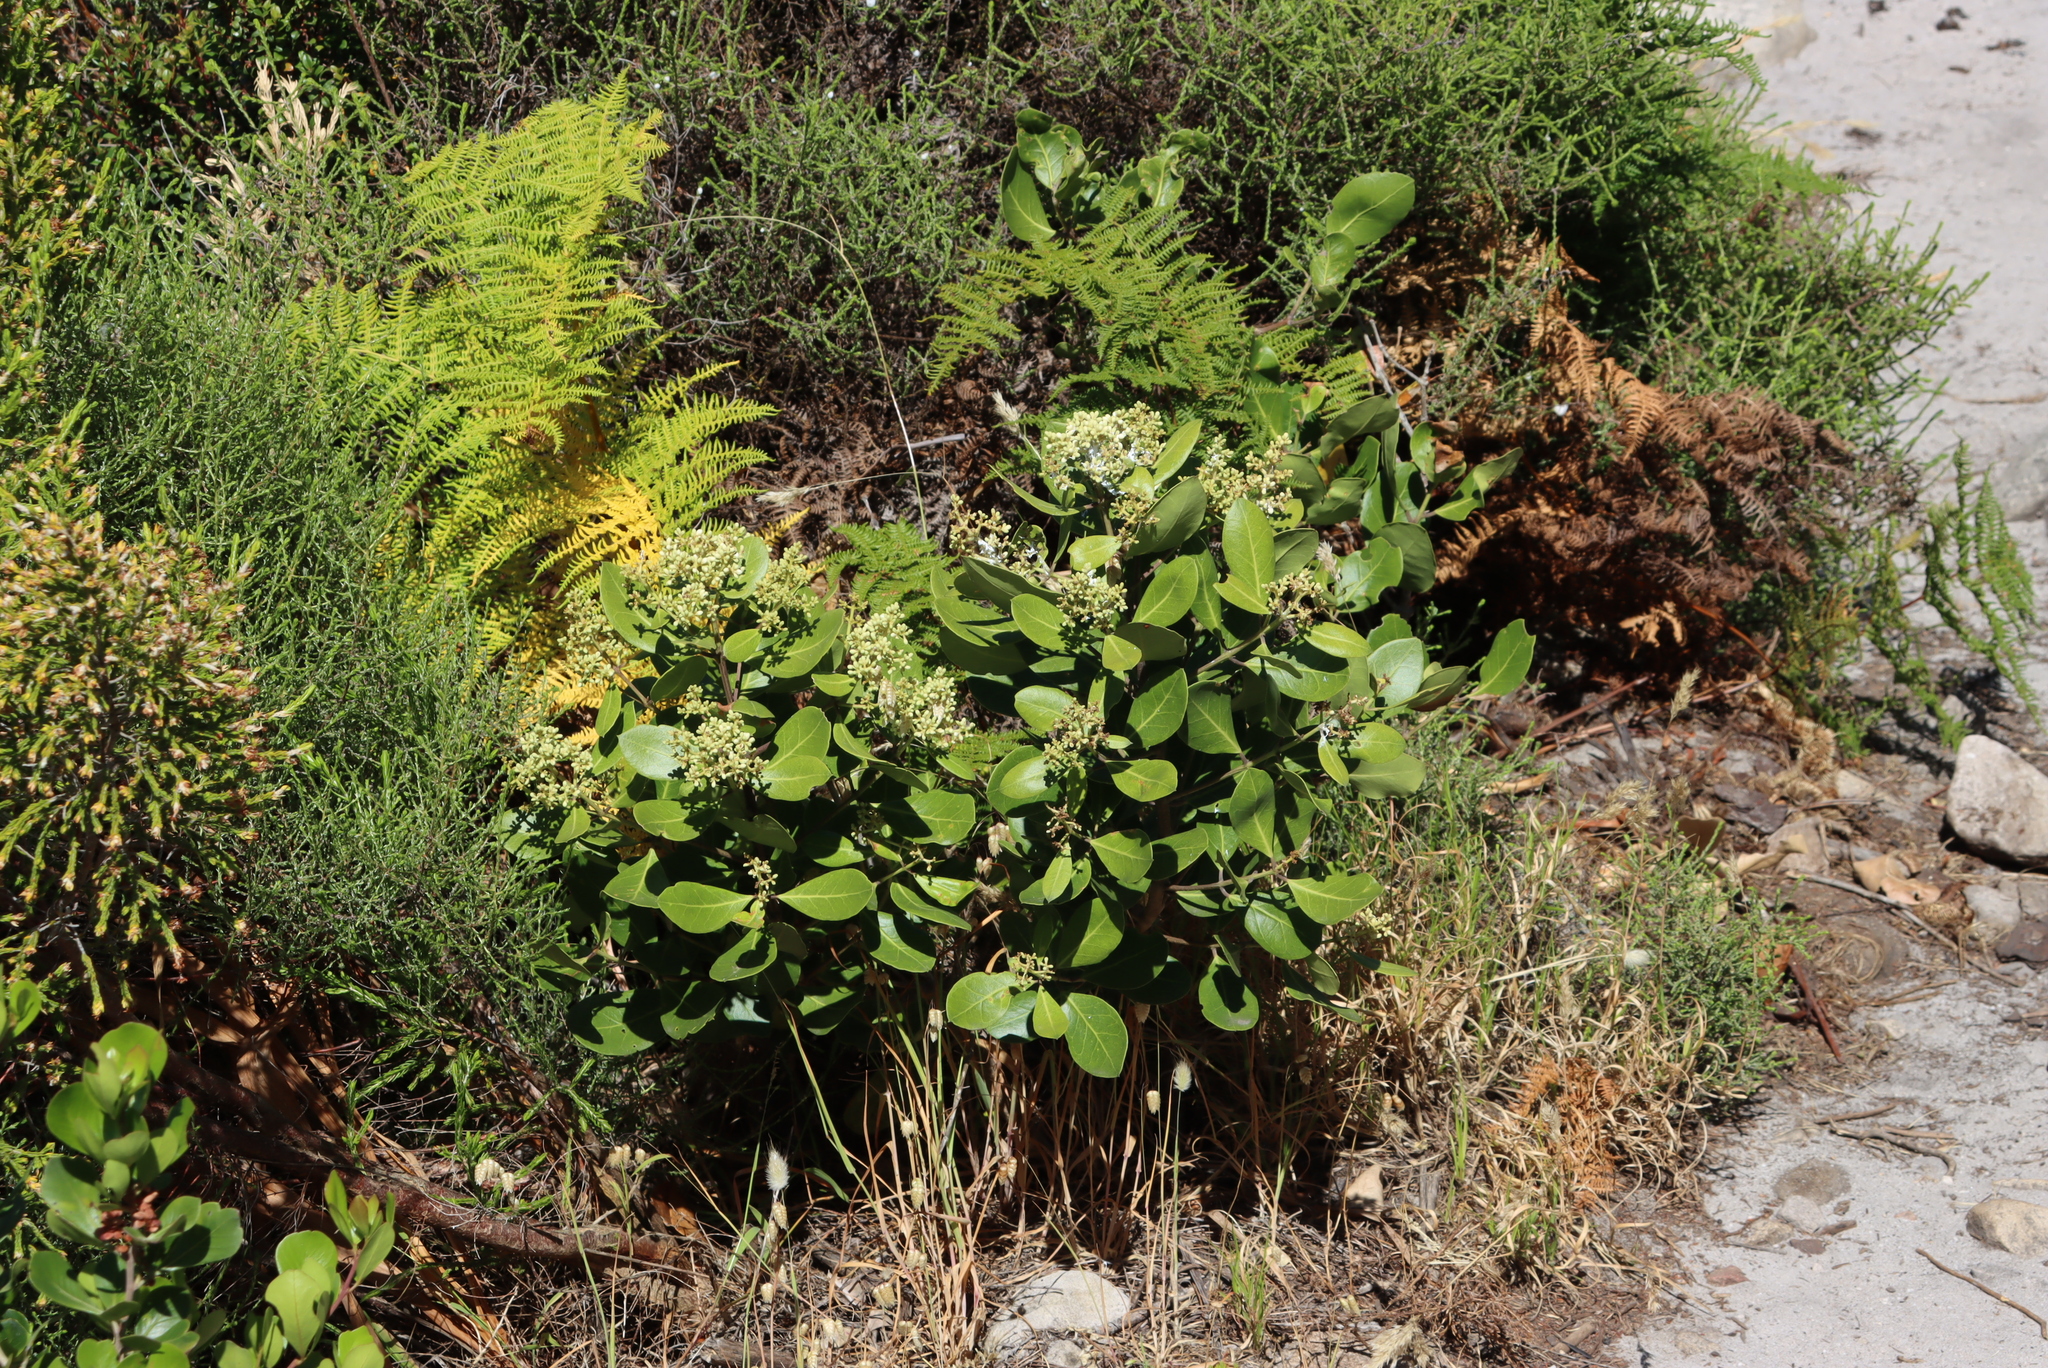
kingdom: Plantae
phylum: Tracheophyta
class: Magnoliopsida
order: Lamiales
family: Oleaceae
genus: Olea
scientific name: Olea capensis
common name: Black ironwood
